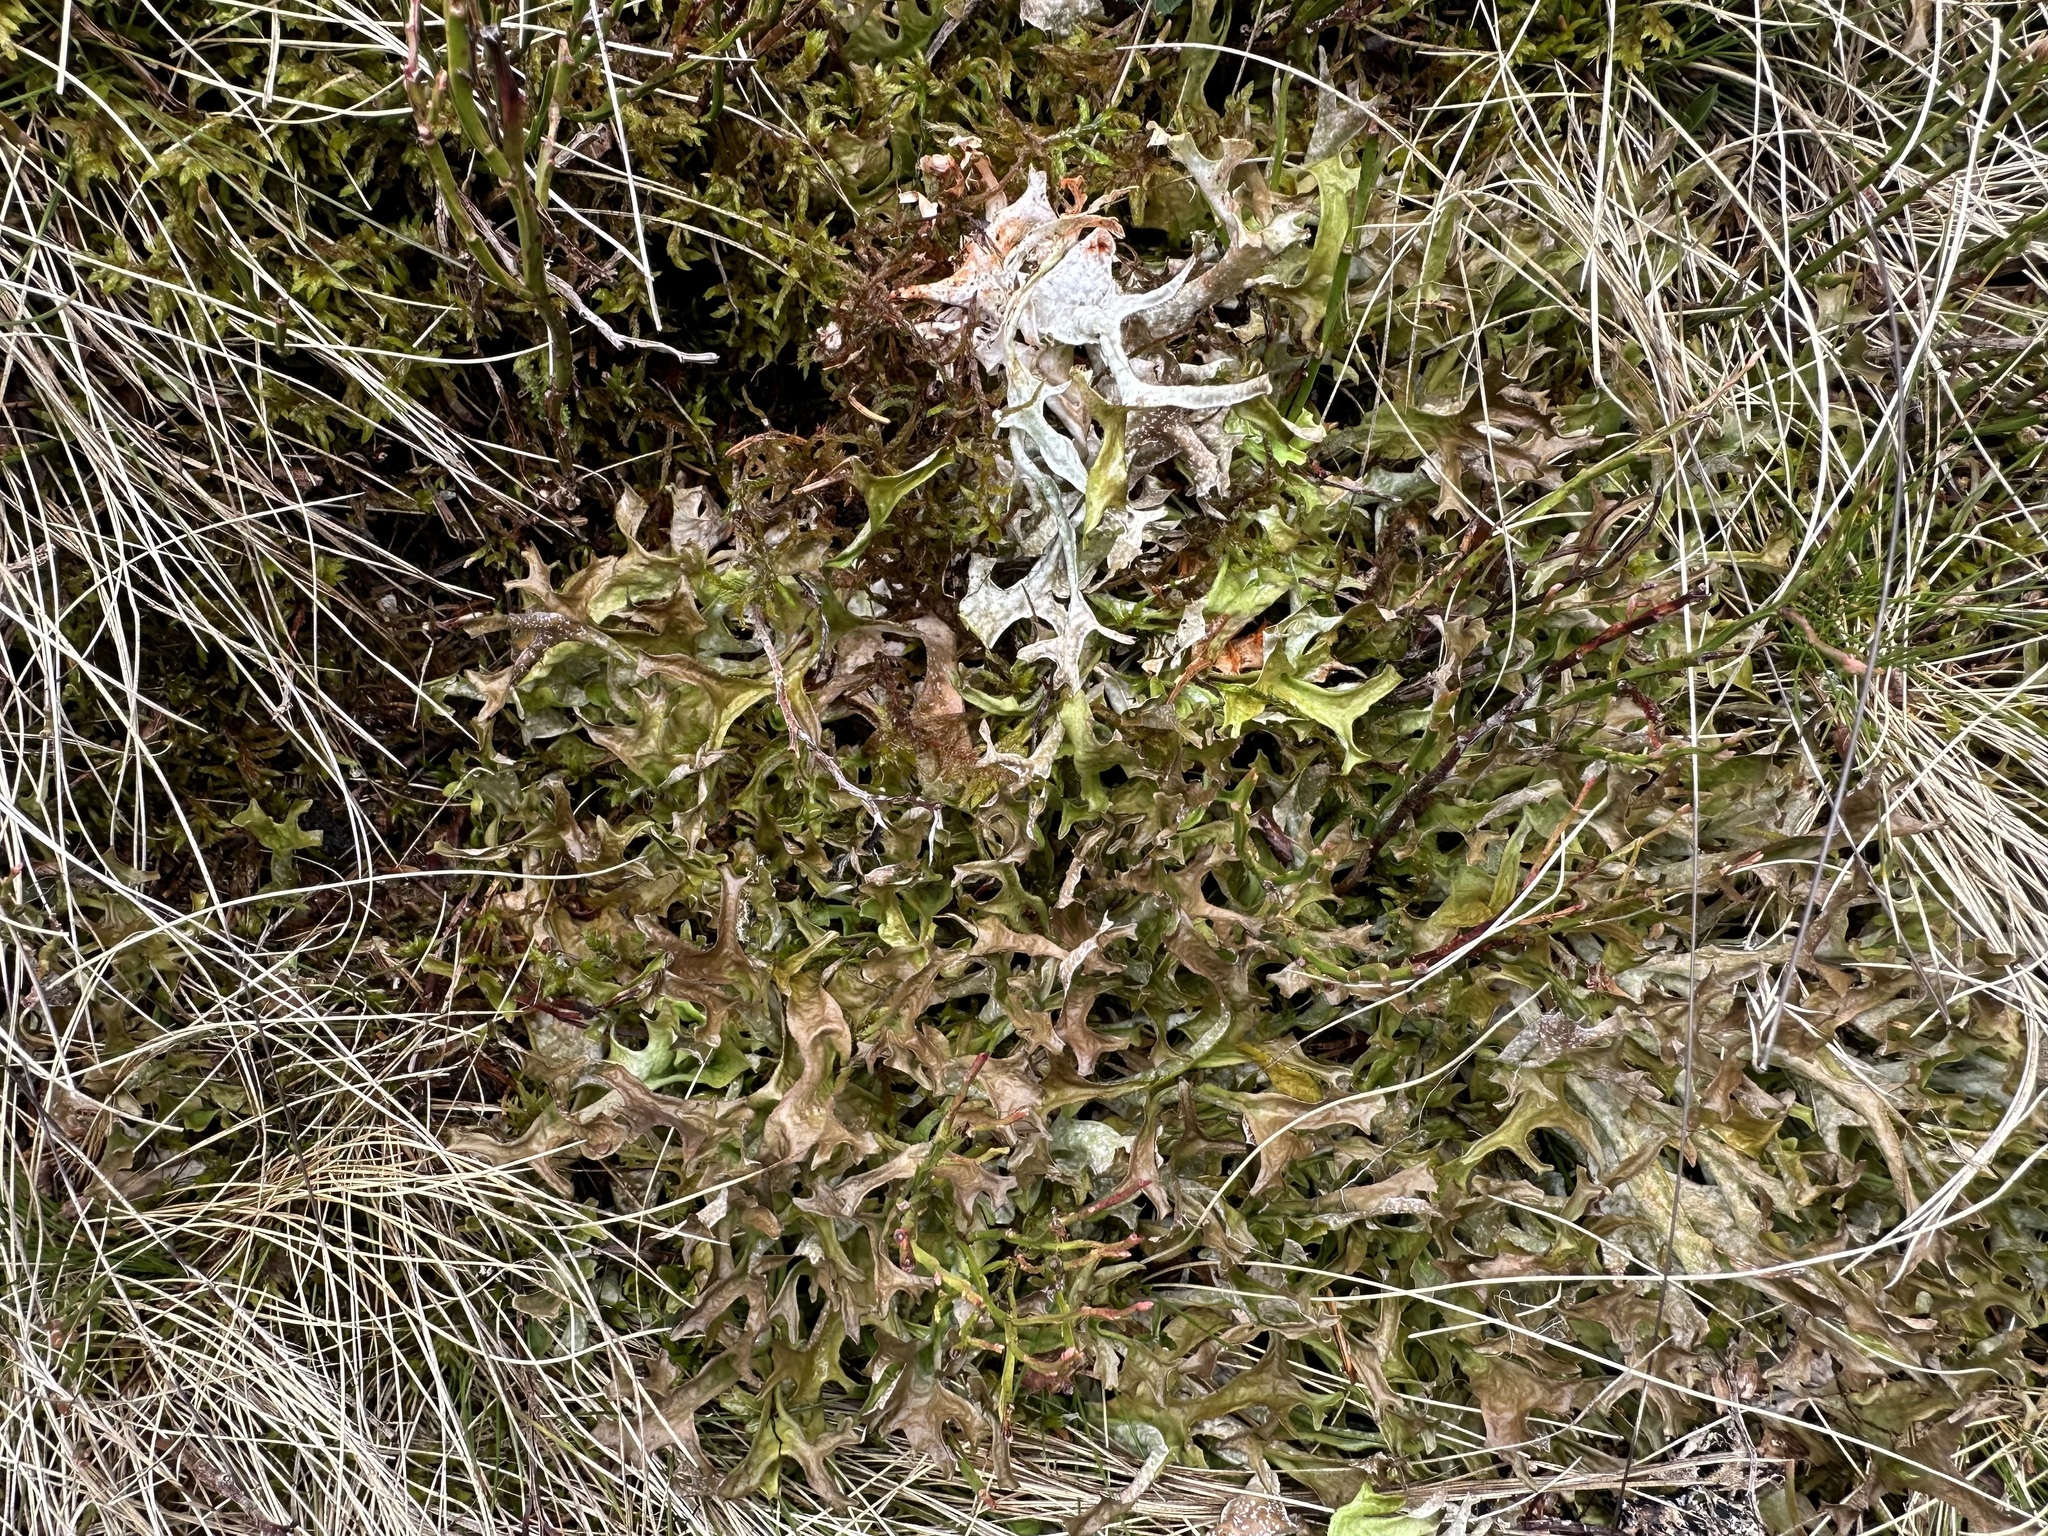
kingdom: Fungi
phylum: Ascomycota
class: Lecanoromycetes
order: Lecanorales
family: Parmeliaceae
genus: Cetraria
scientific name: Cetraria islandica
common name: Iceland lichen
